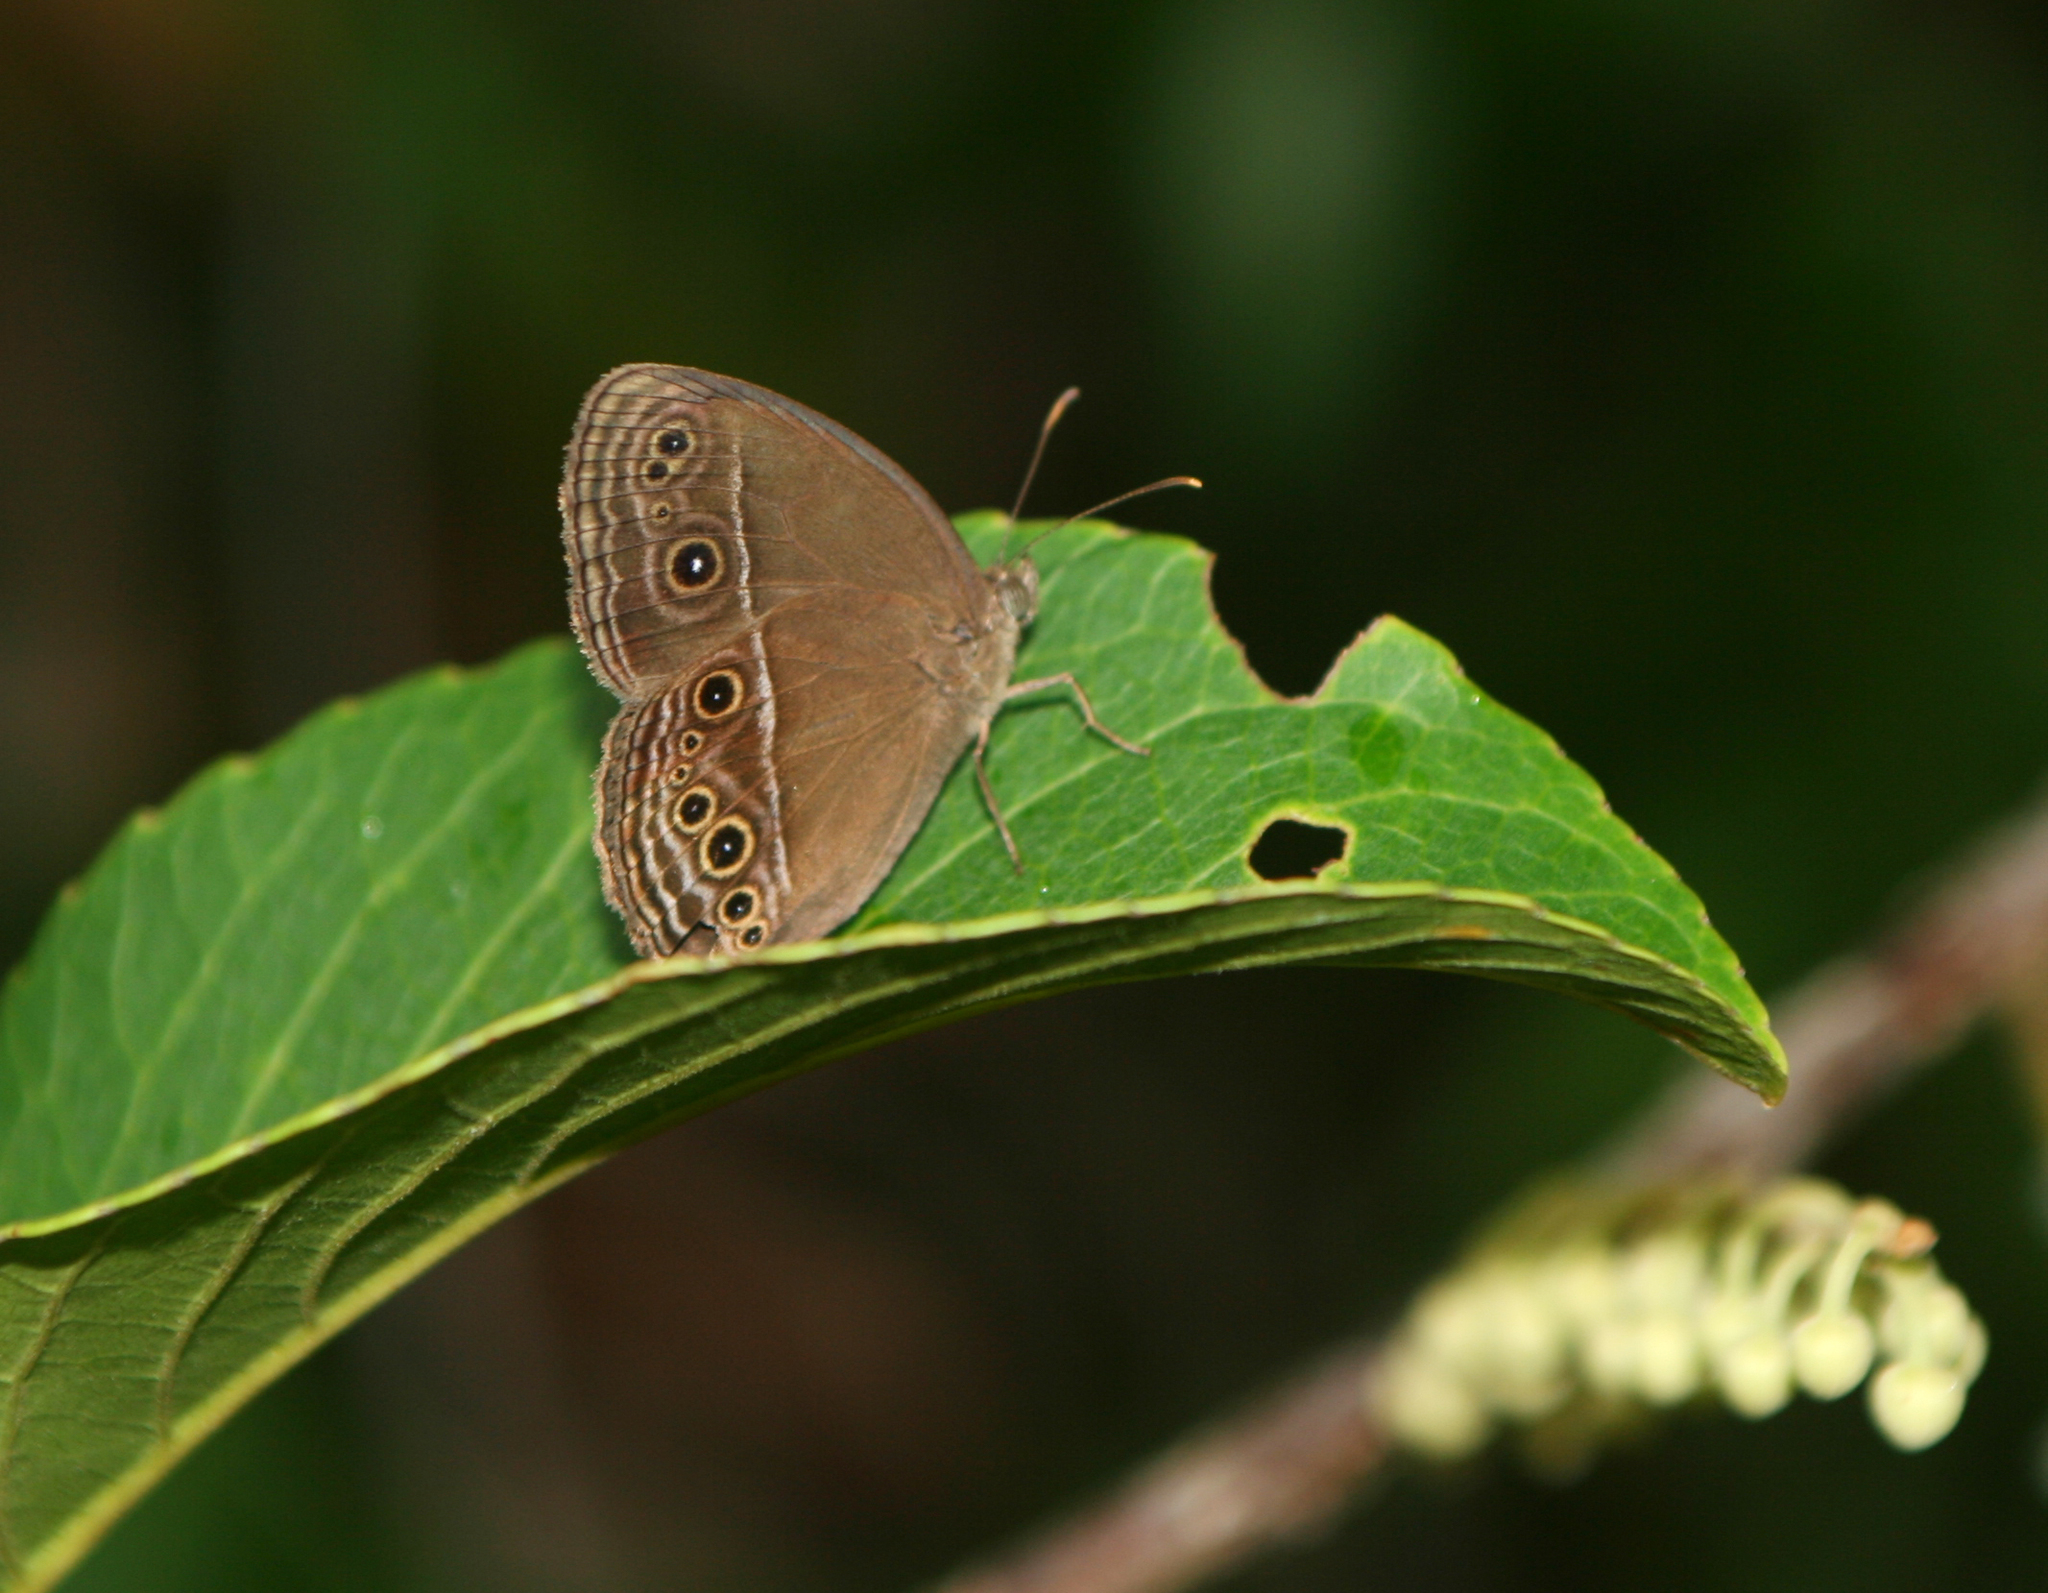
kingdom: Animalia
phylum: Arthropoda
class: Insecta
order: Lepidoptera
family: Nymphalidae
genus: Mycalesis
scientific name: Mycalesis perseus
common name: Dingy bushbrown
